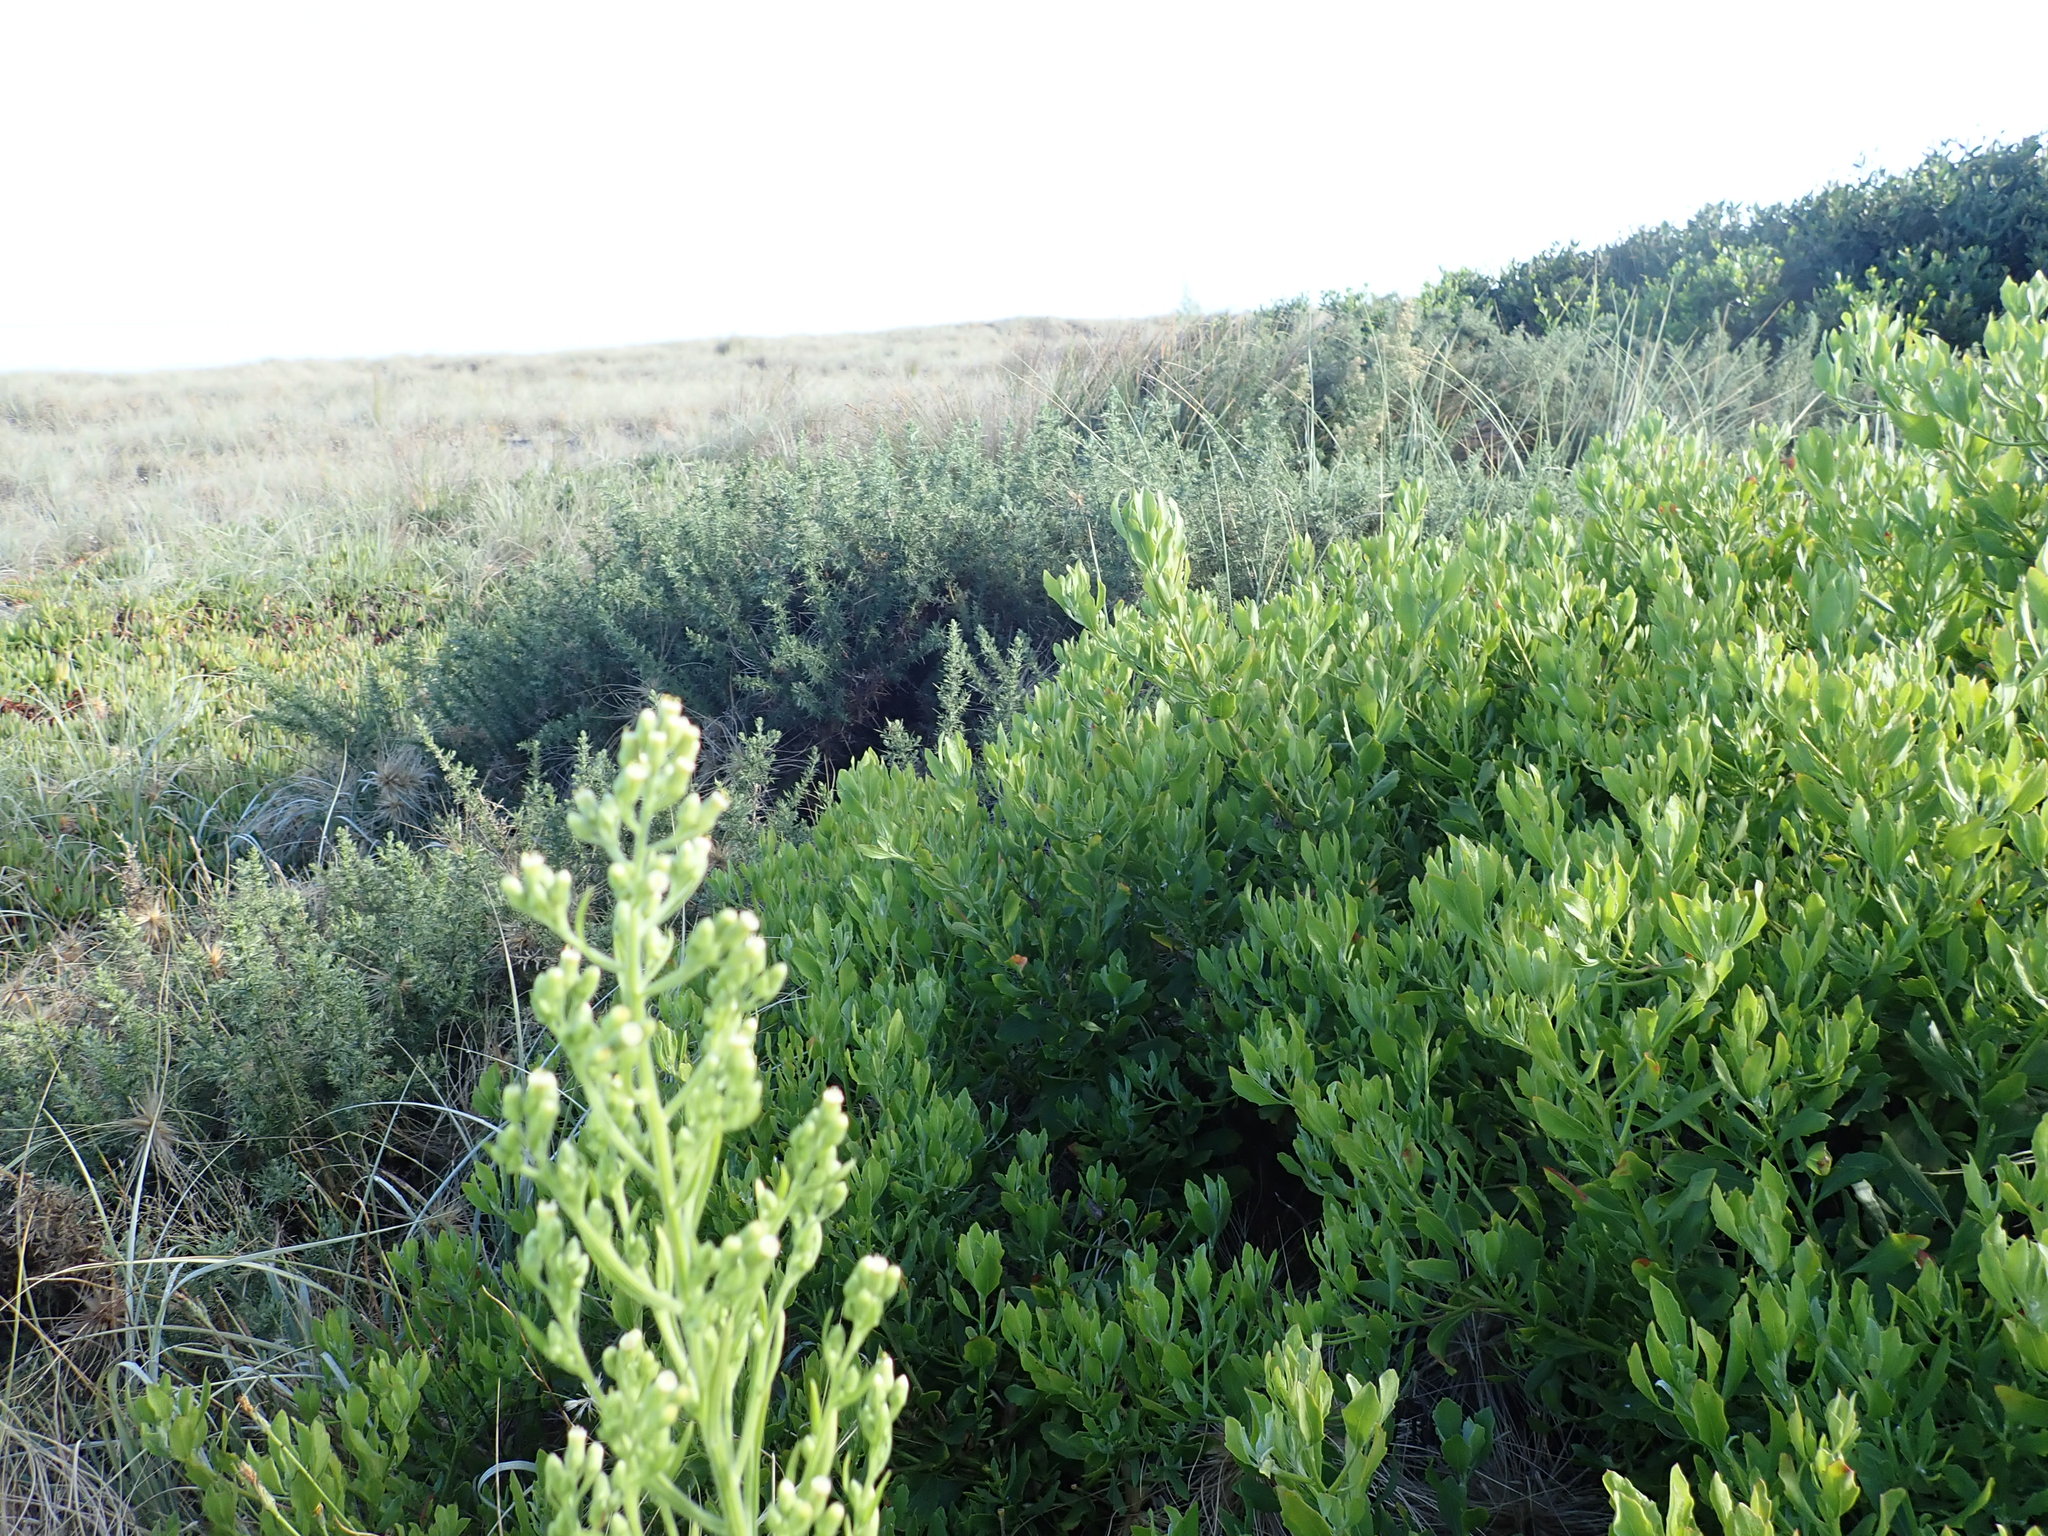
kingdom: Plantae
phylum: Tracheophyta
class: Magnoliopsida
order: Asterales
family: Asteraceae
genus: Osteospermum
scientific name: Osteospermum moniliferum
